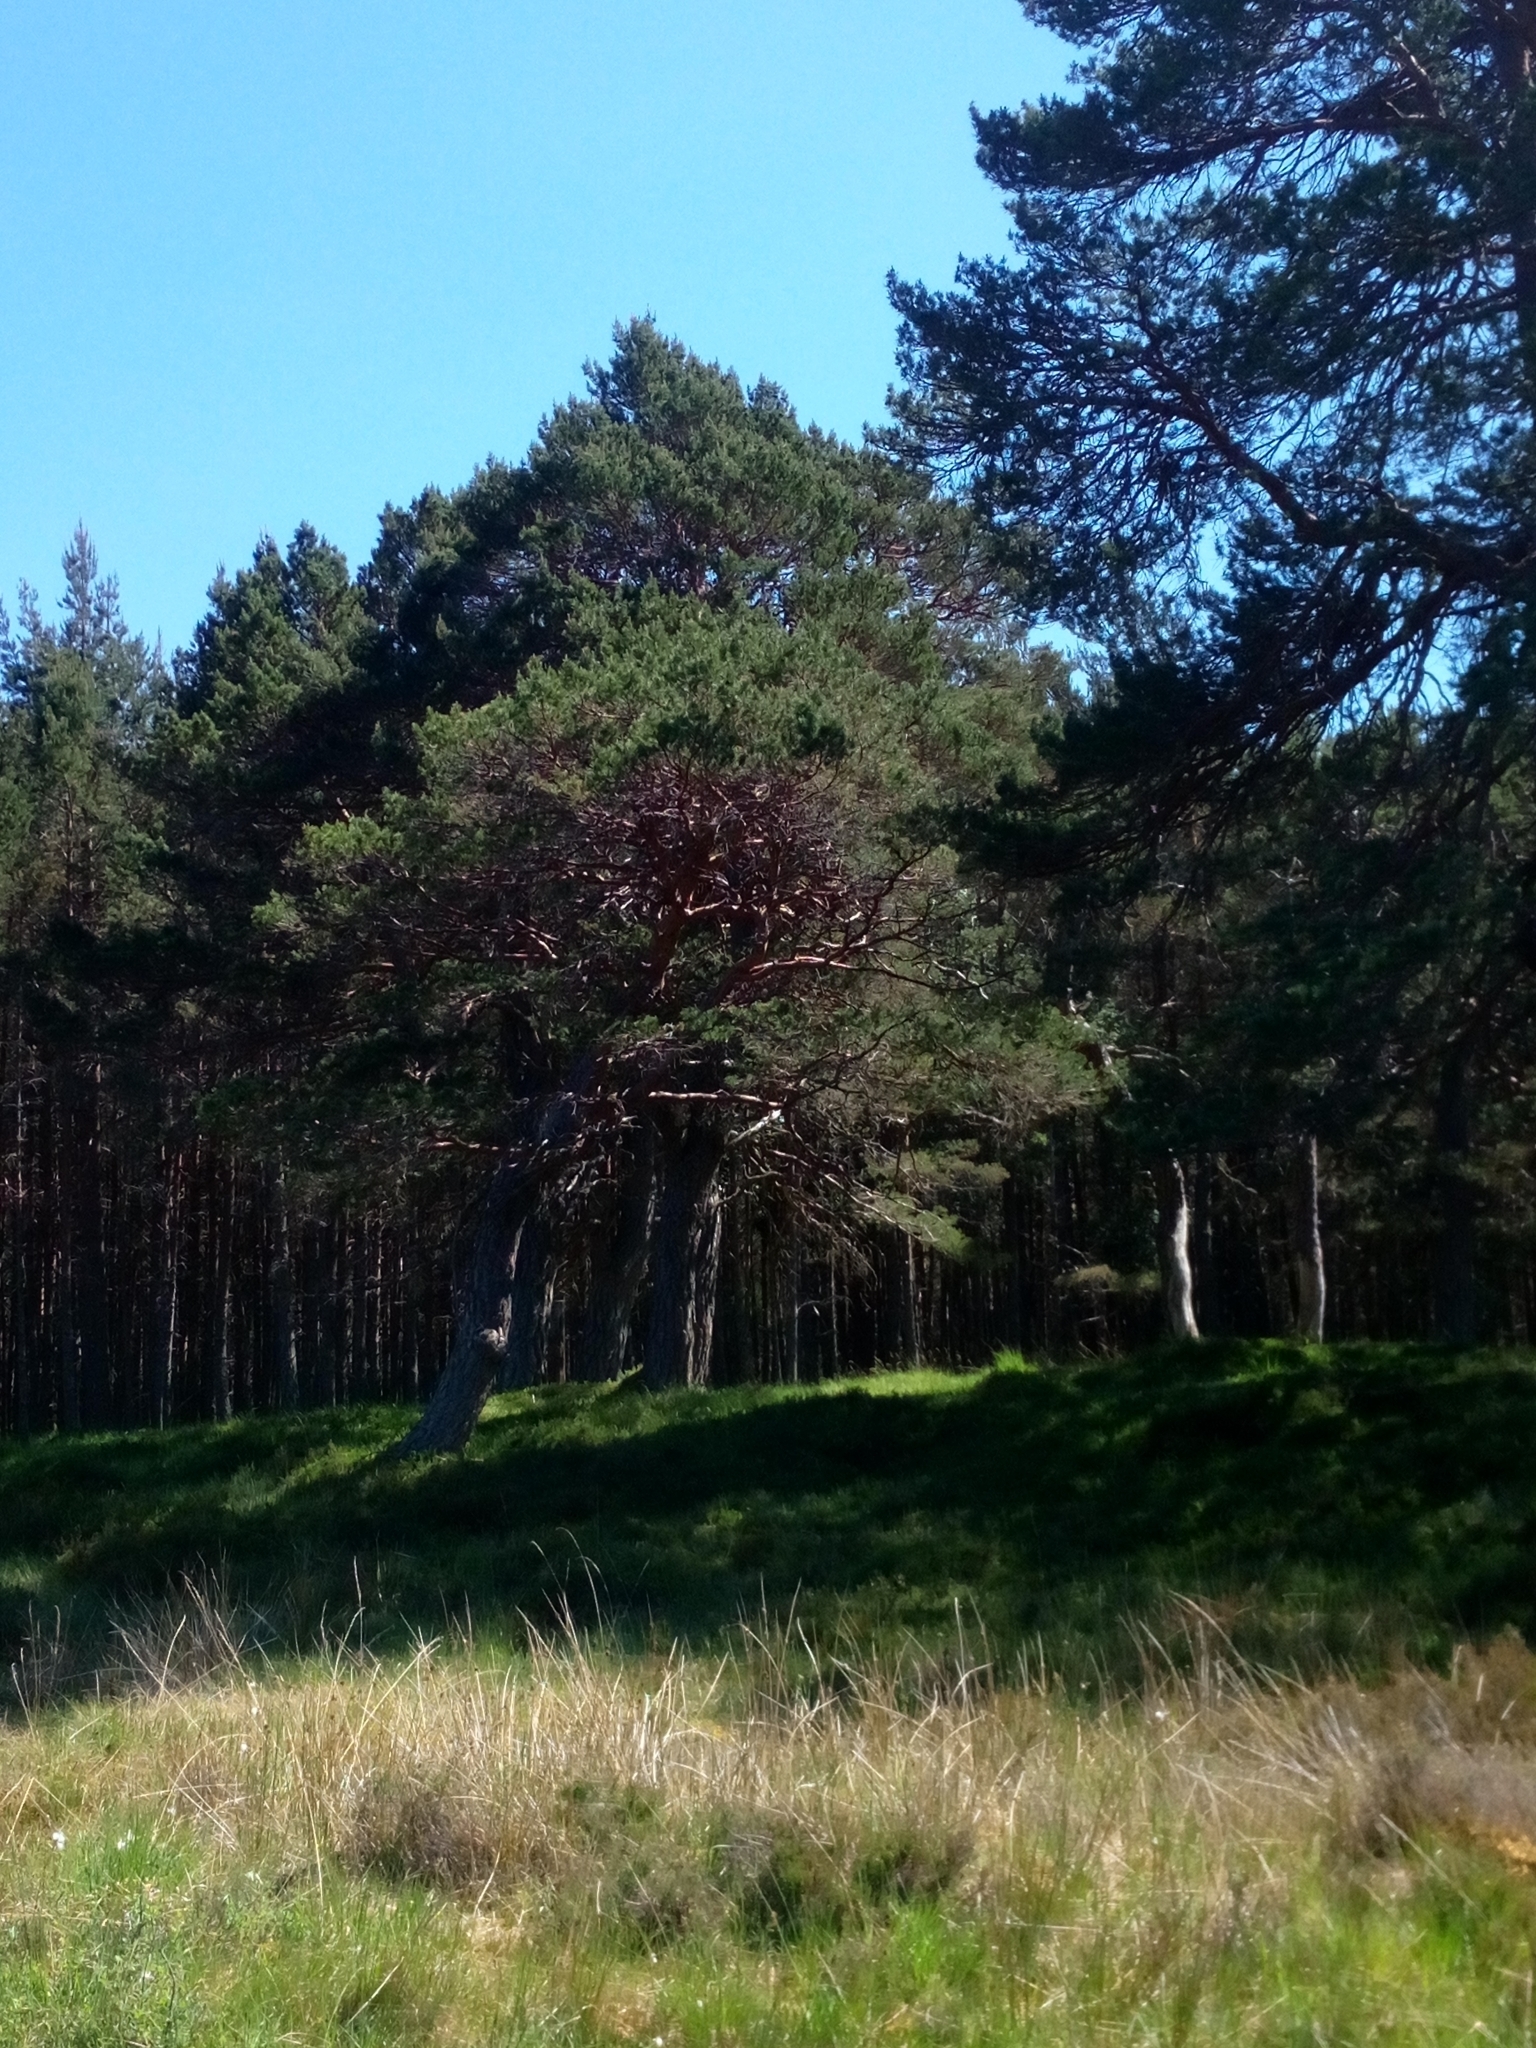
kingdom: Plantae
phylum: Tracheophyta
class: Pinopsida
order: Pinales
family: Pinaceae
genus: Pinus
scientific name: Pinus sylvestris
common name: Scots pine
